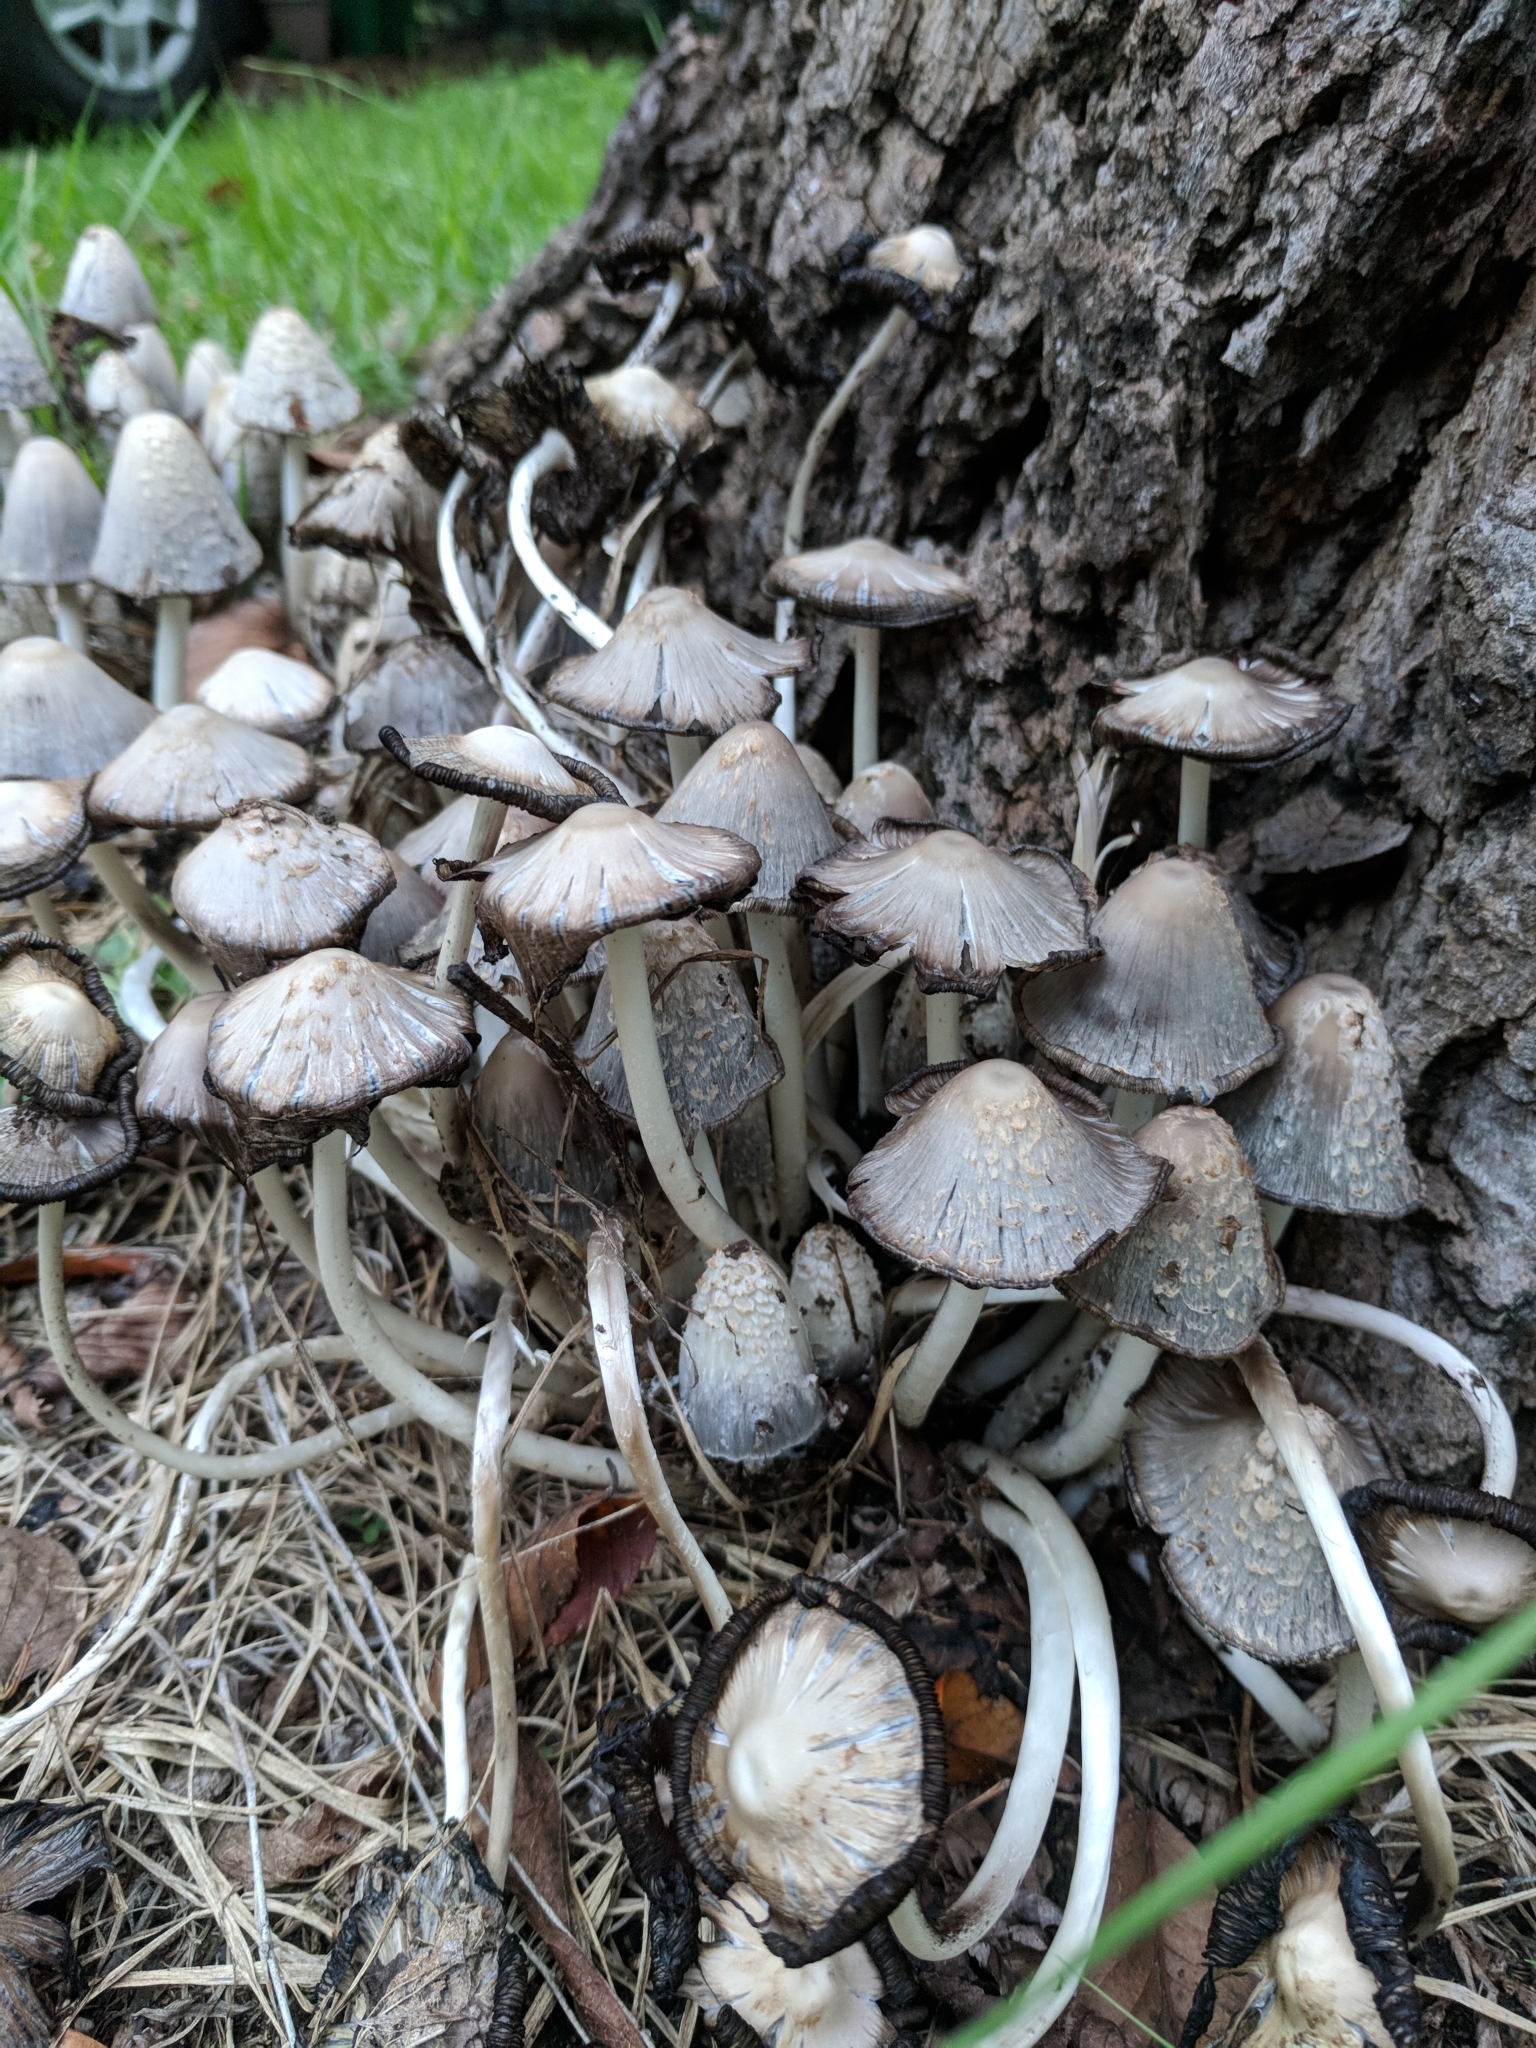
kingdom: Fungi
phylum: Basidiomycota
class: Agaricomycetes
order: Agaricales
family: Psathyrellaceae
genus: Coprinopsis
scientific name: Coprinopsis variegata
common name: Scaly ink cap
